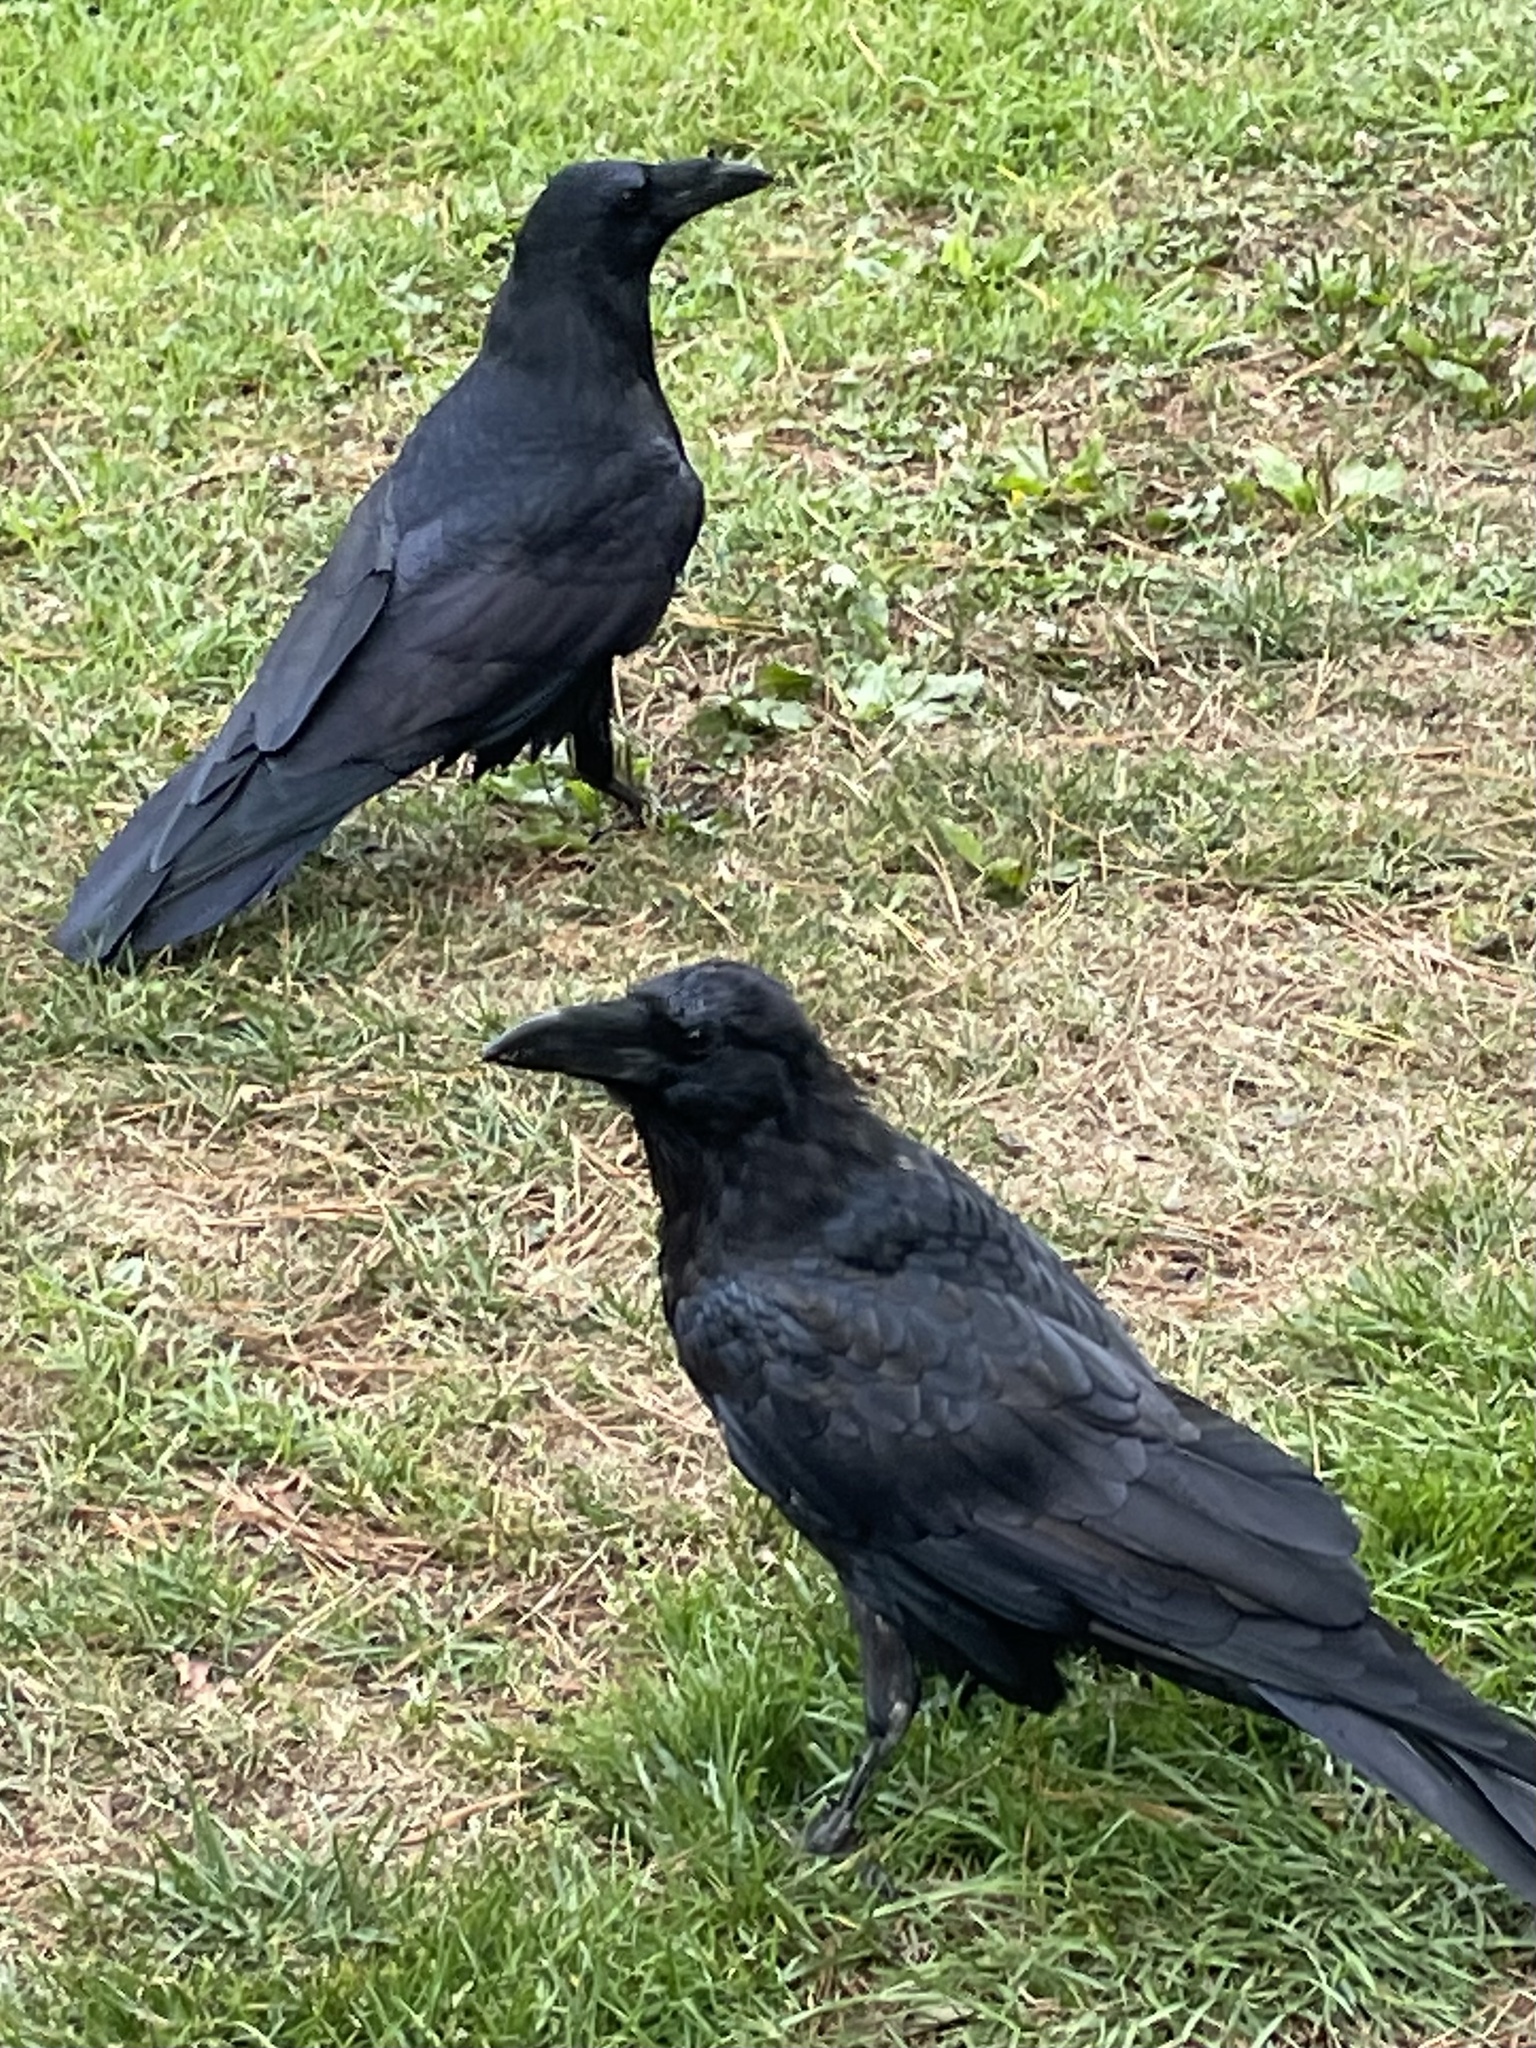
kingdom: Animalia
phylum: Chordata
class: Aves
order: Passeriformes
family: Corvidae
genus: Corvus
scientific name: Corvus corax
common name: Common raven
